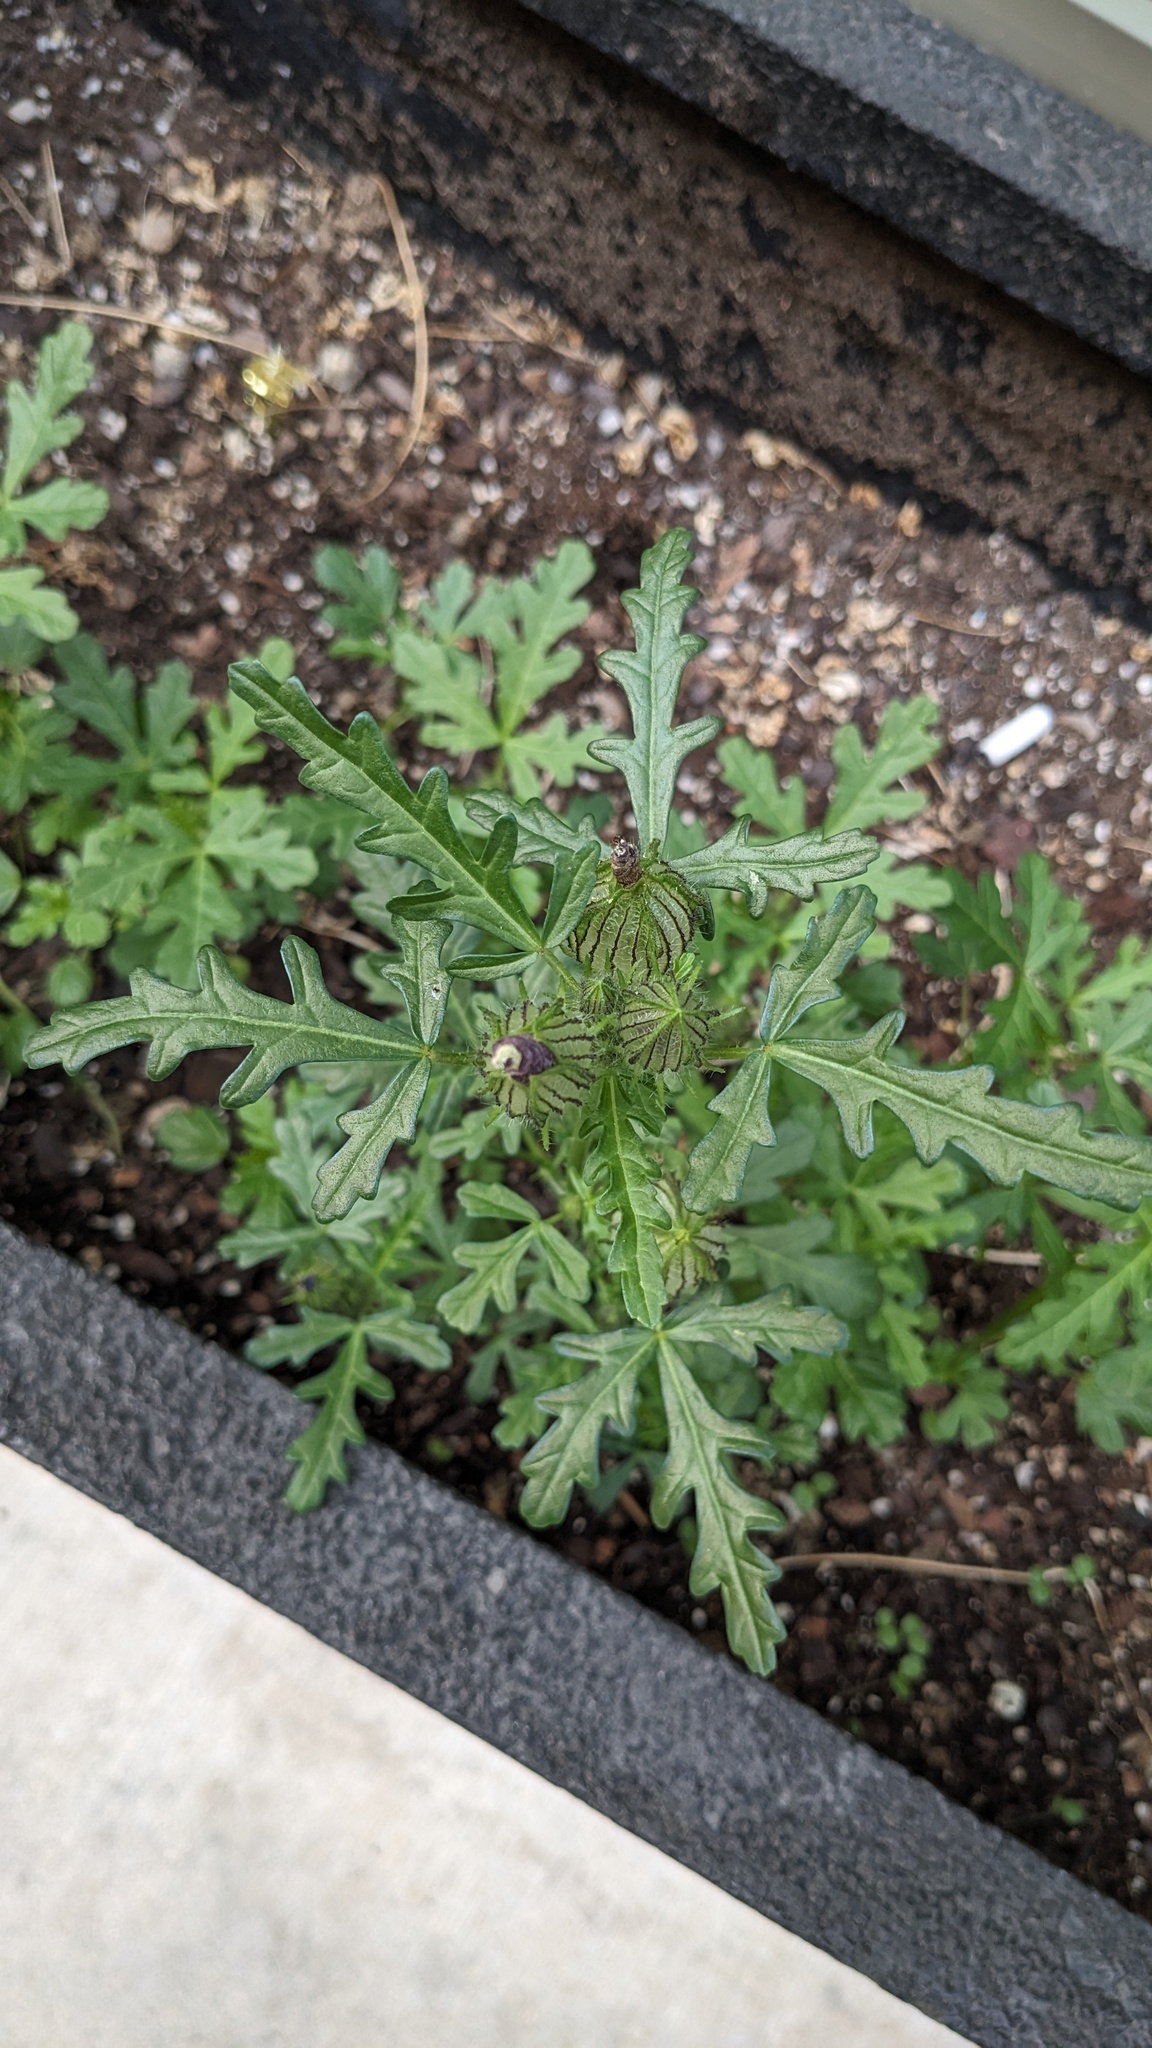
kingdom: Plantae
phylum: Tracheophyta
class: Magnoliopsida
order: Malvales
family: Malvaceae
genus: Hibiscus
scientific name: Hibiscus trionum
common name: Bladder ketmia
